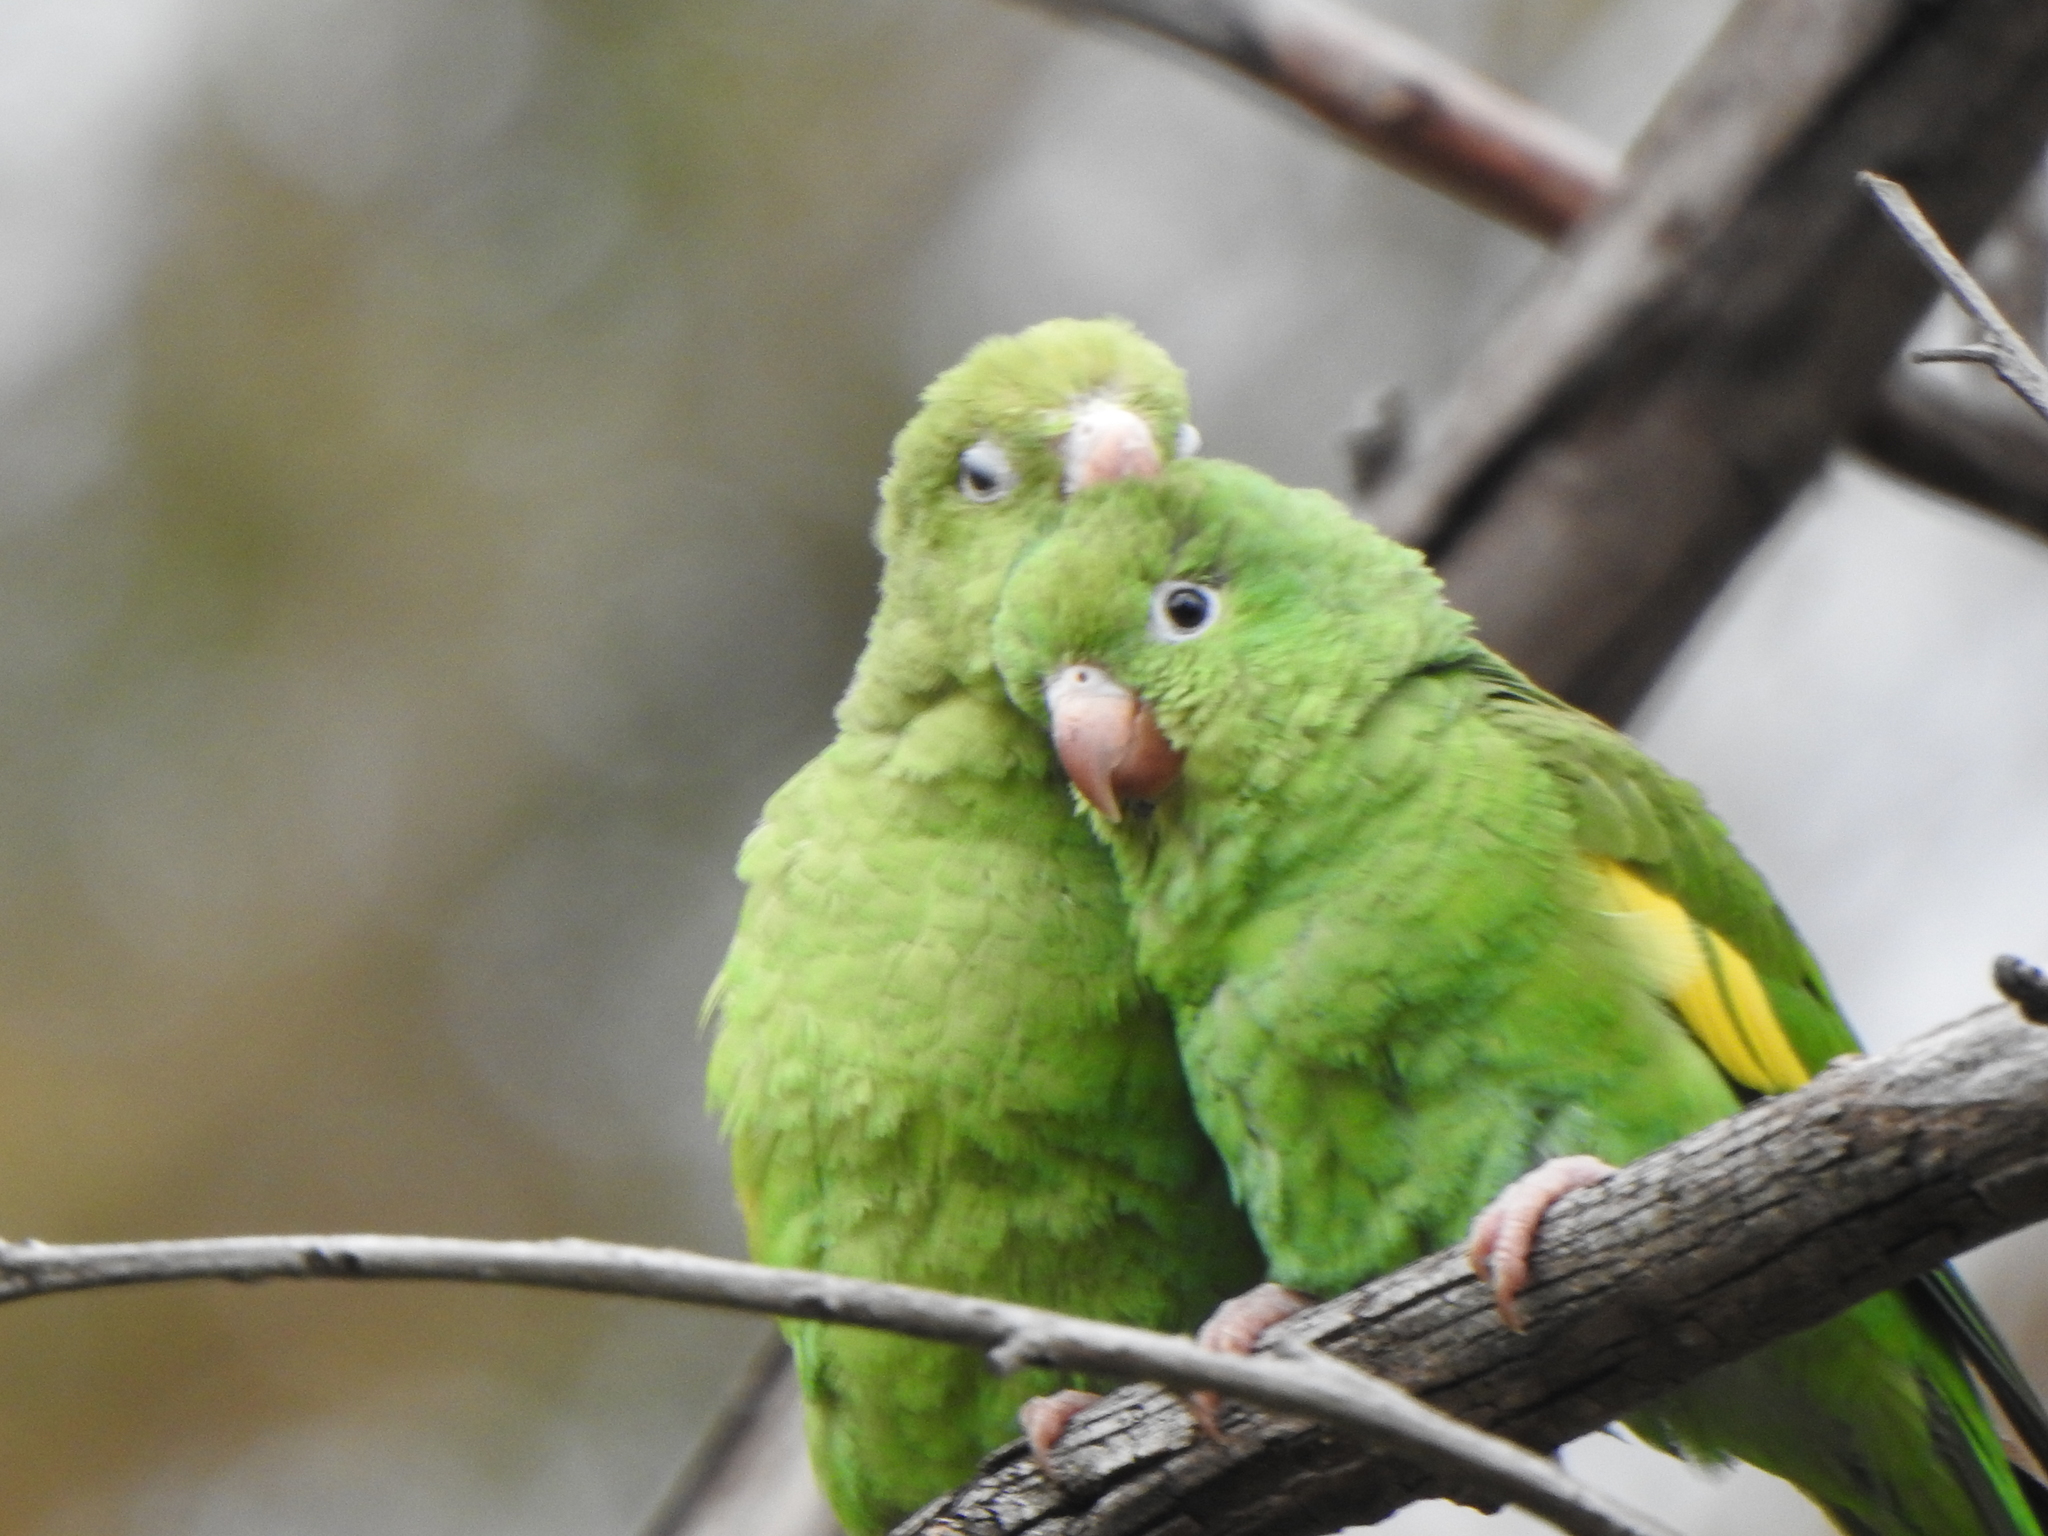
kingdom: Animalia
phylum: Chordata
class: Aves
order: Psittaciformes
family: Psittacidae
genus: Brotogeris
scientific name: Brotogeris chiriri
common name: Yellow-chevroned parakeet
